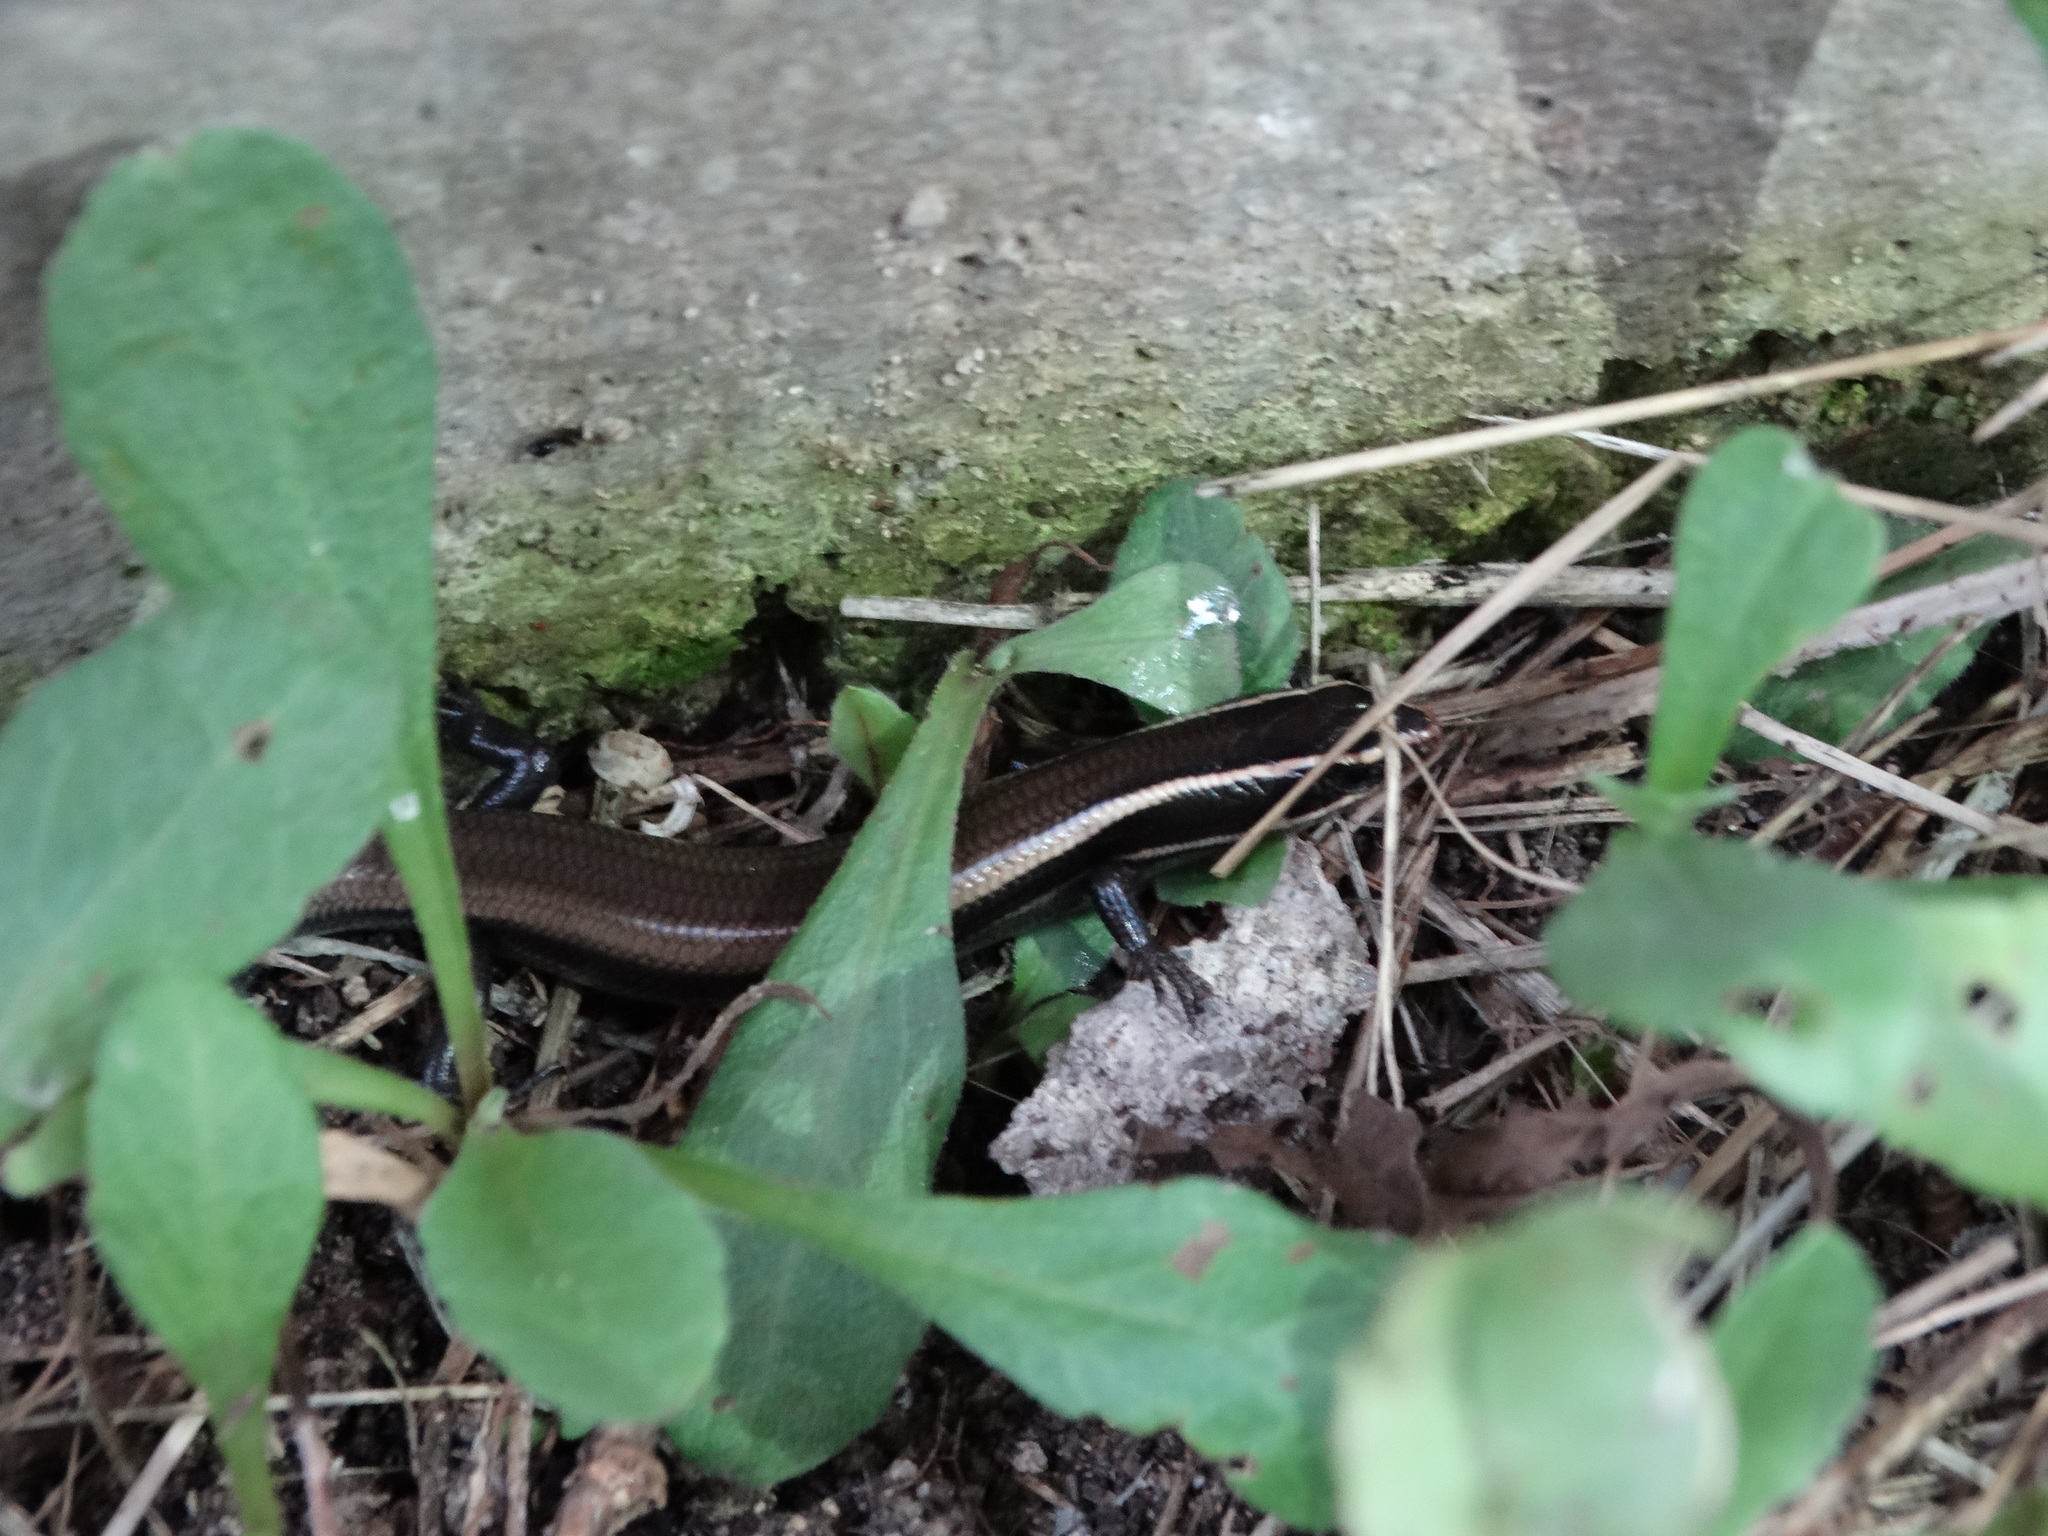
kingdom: Animalia
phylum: Chordata
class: Squamata
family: Scincidae
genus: Plestiodon
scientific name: Plestiodon brevirostris
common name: Shortnose skink
